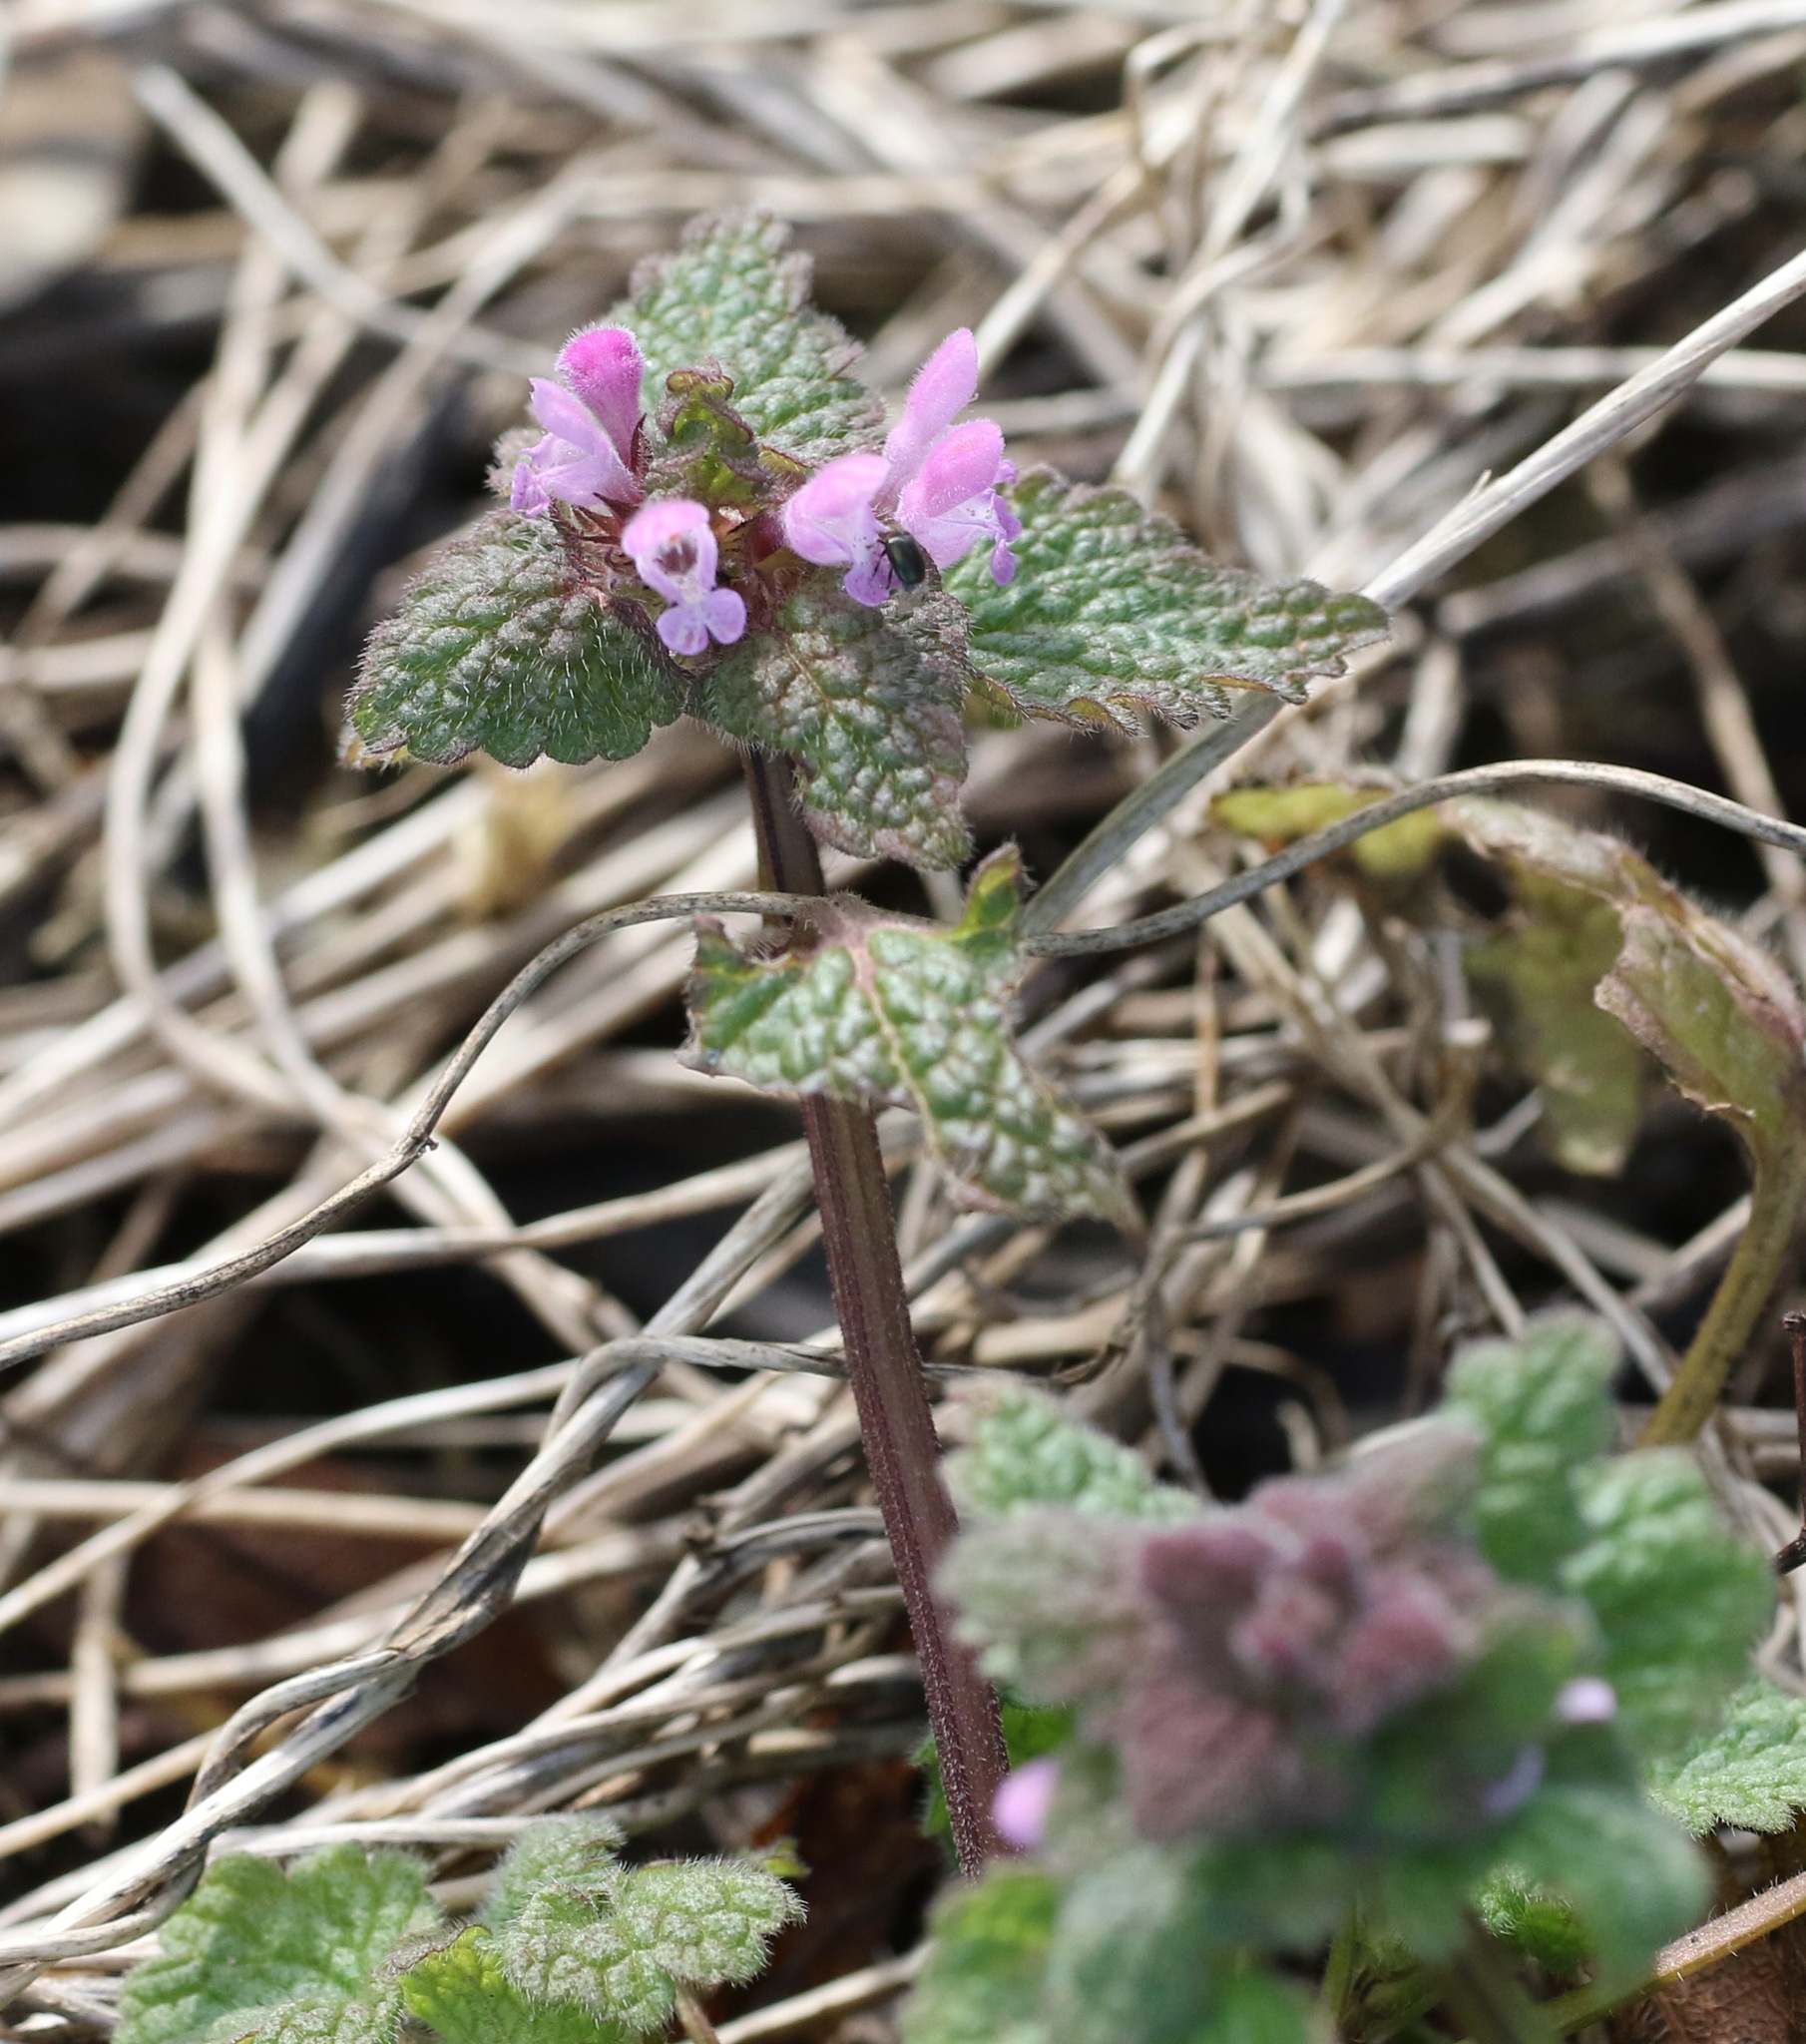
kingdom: Plantae
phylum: Tracheophyta
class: Magnoliopsida
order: Lamiales
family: Lamiaceae
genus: Lamium
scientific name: Lamium purpureum
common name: Red dead-nettle
